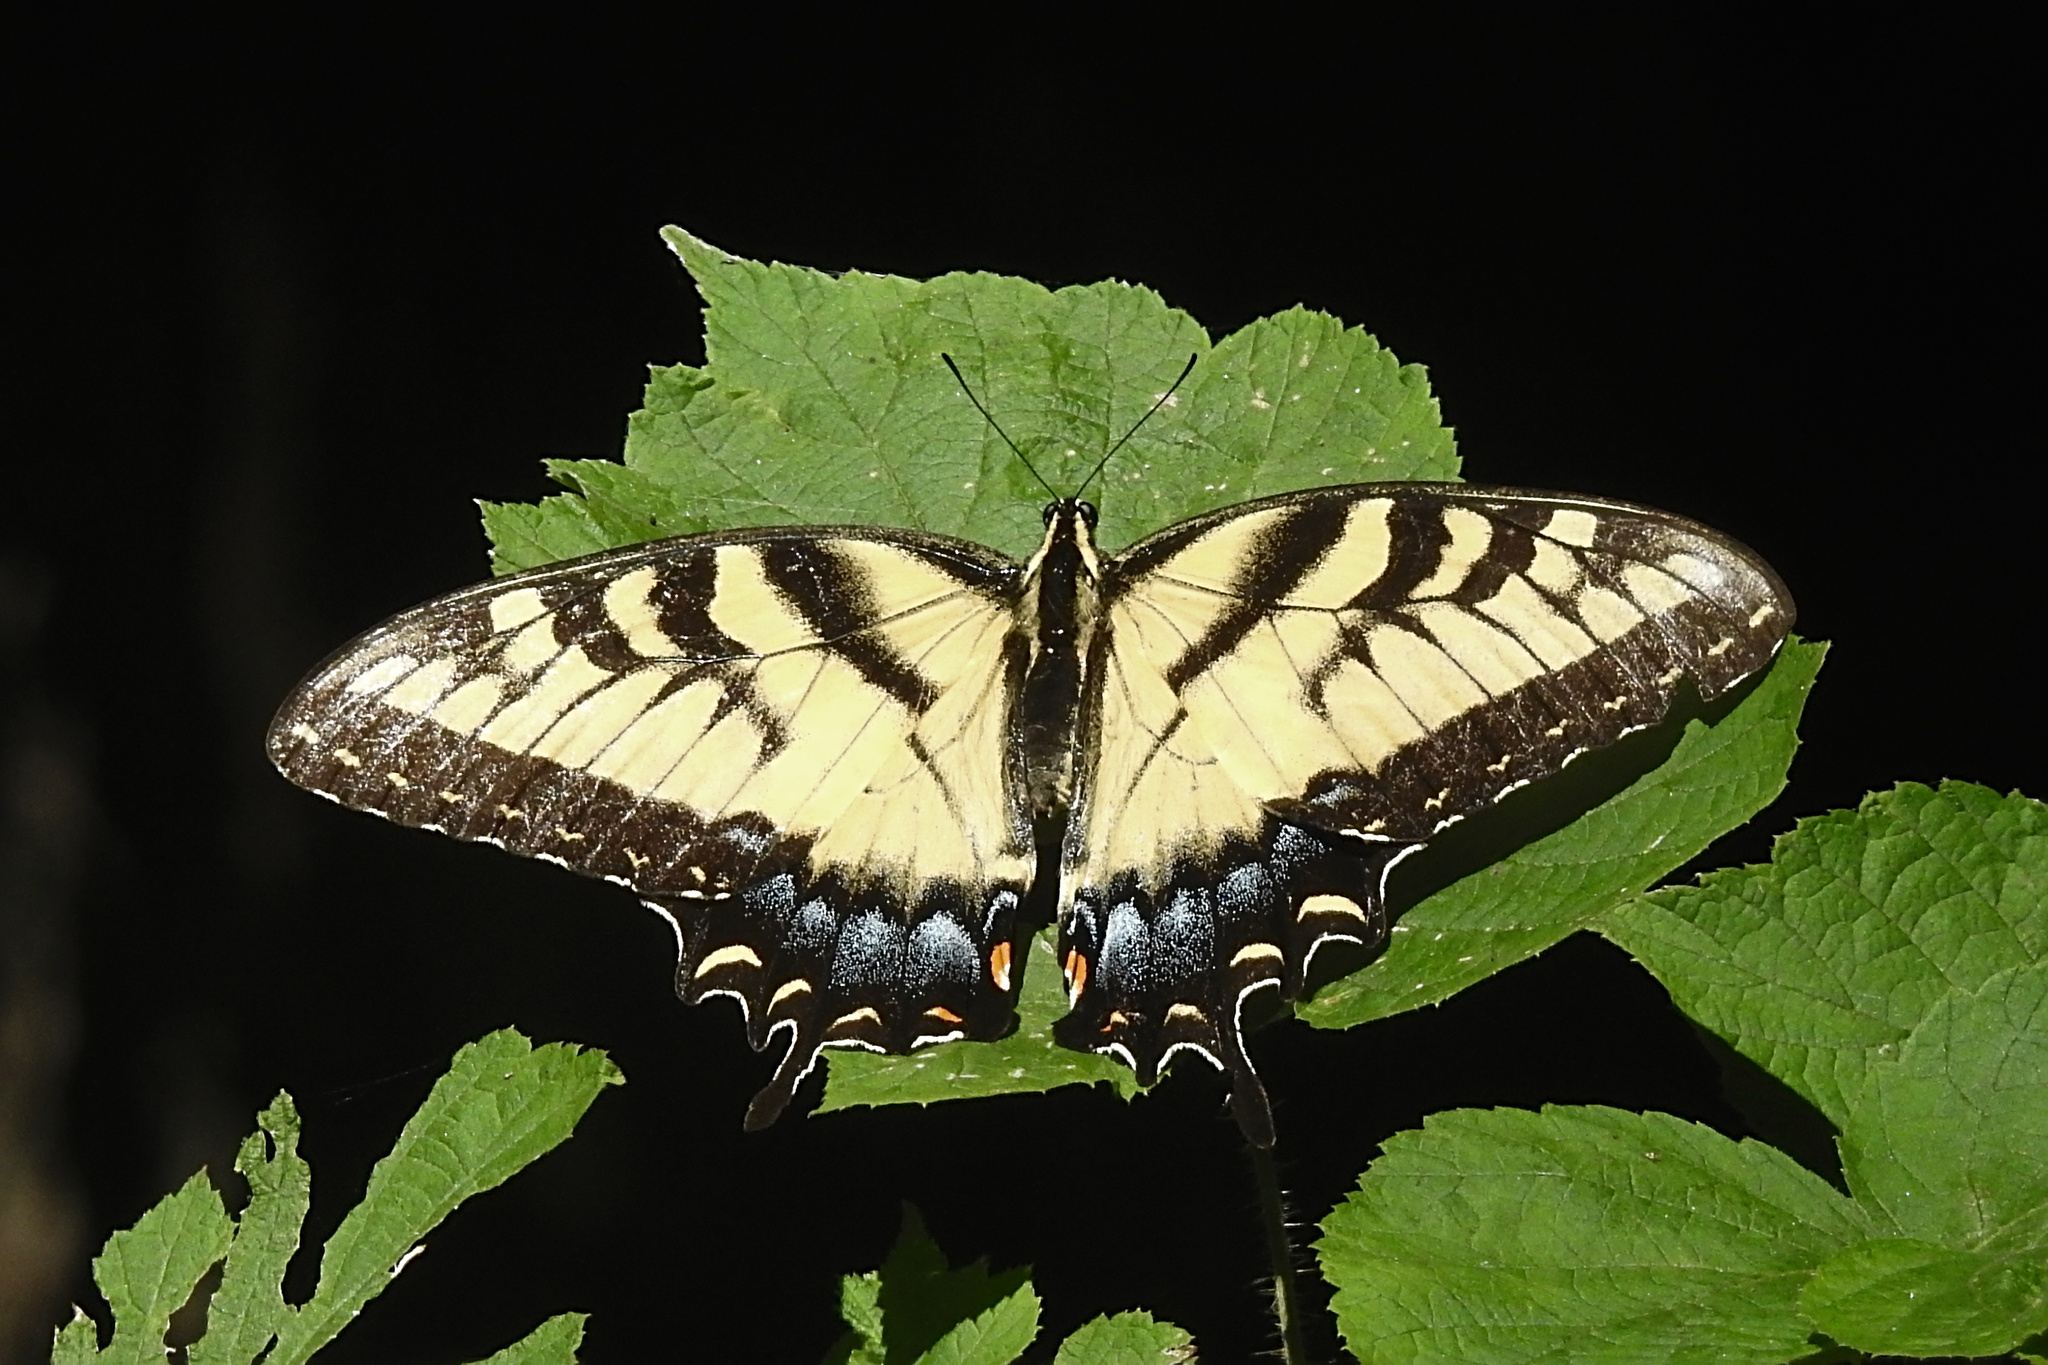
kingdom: Animalia
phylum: Arthropoda
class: Insecta
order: Lepidoptera
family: Papilionidae
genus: Papilio
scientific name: Papilio glaucus
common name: Tiger swallowtail
